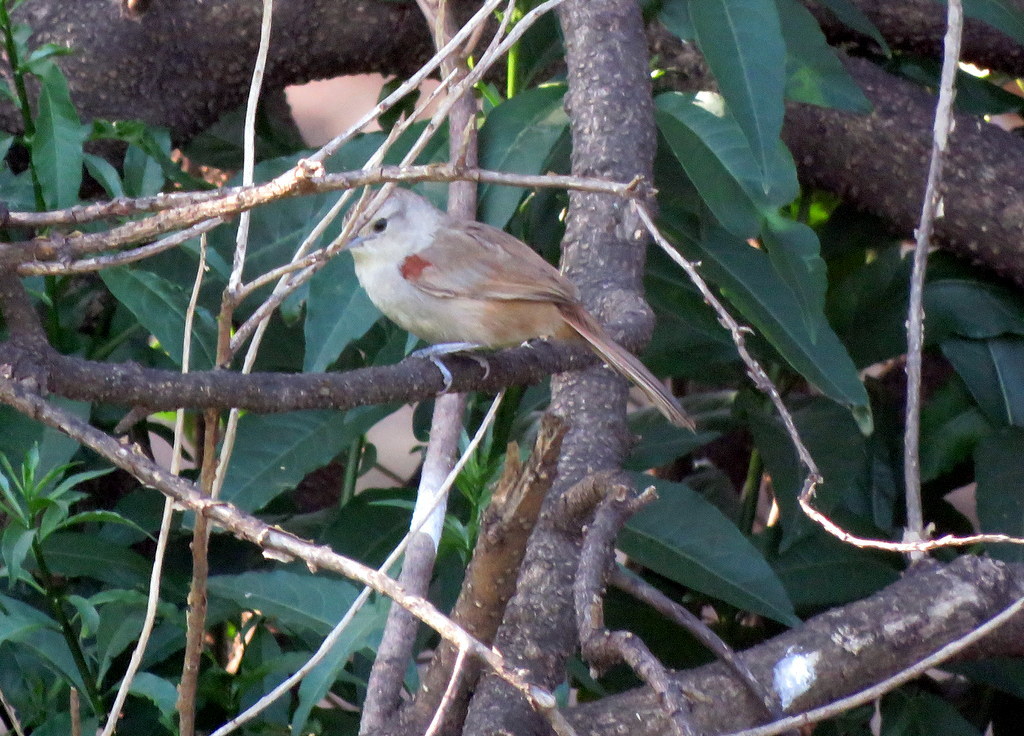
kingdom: Animalia
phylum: Chordata
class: Aves
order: Passeriformes
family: Furnariidae
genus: Phacellodomus
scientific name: Phacellodomus sibilatrix
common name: Little thornbird
